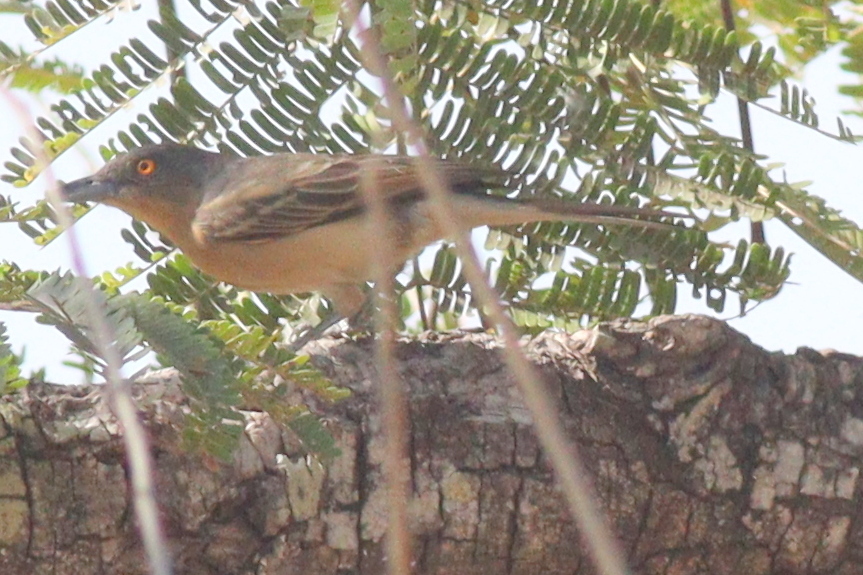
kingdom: Animalia
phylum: Chordata
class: Aves
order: Passeriformes
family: Malaconotidae
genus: Dryoscopus
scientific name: Dryoscopus gambensis
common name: Northern puffback
